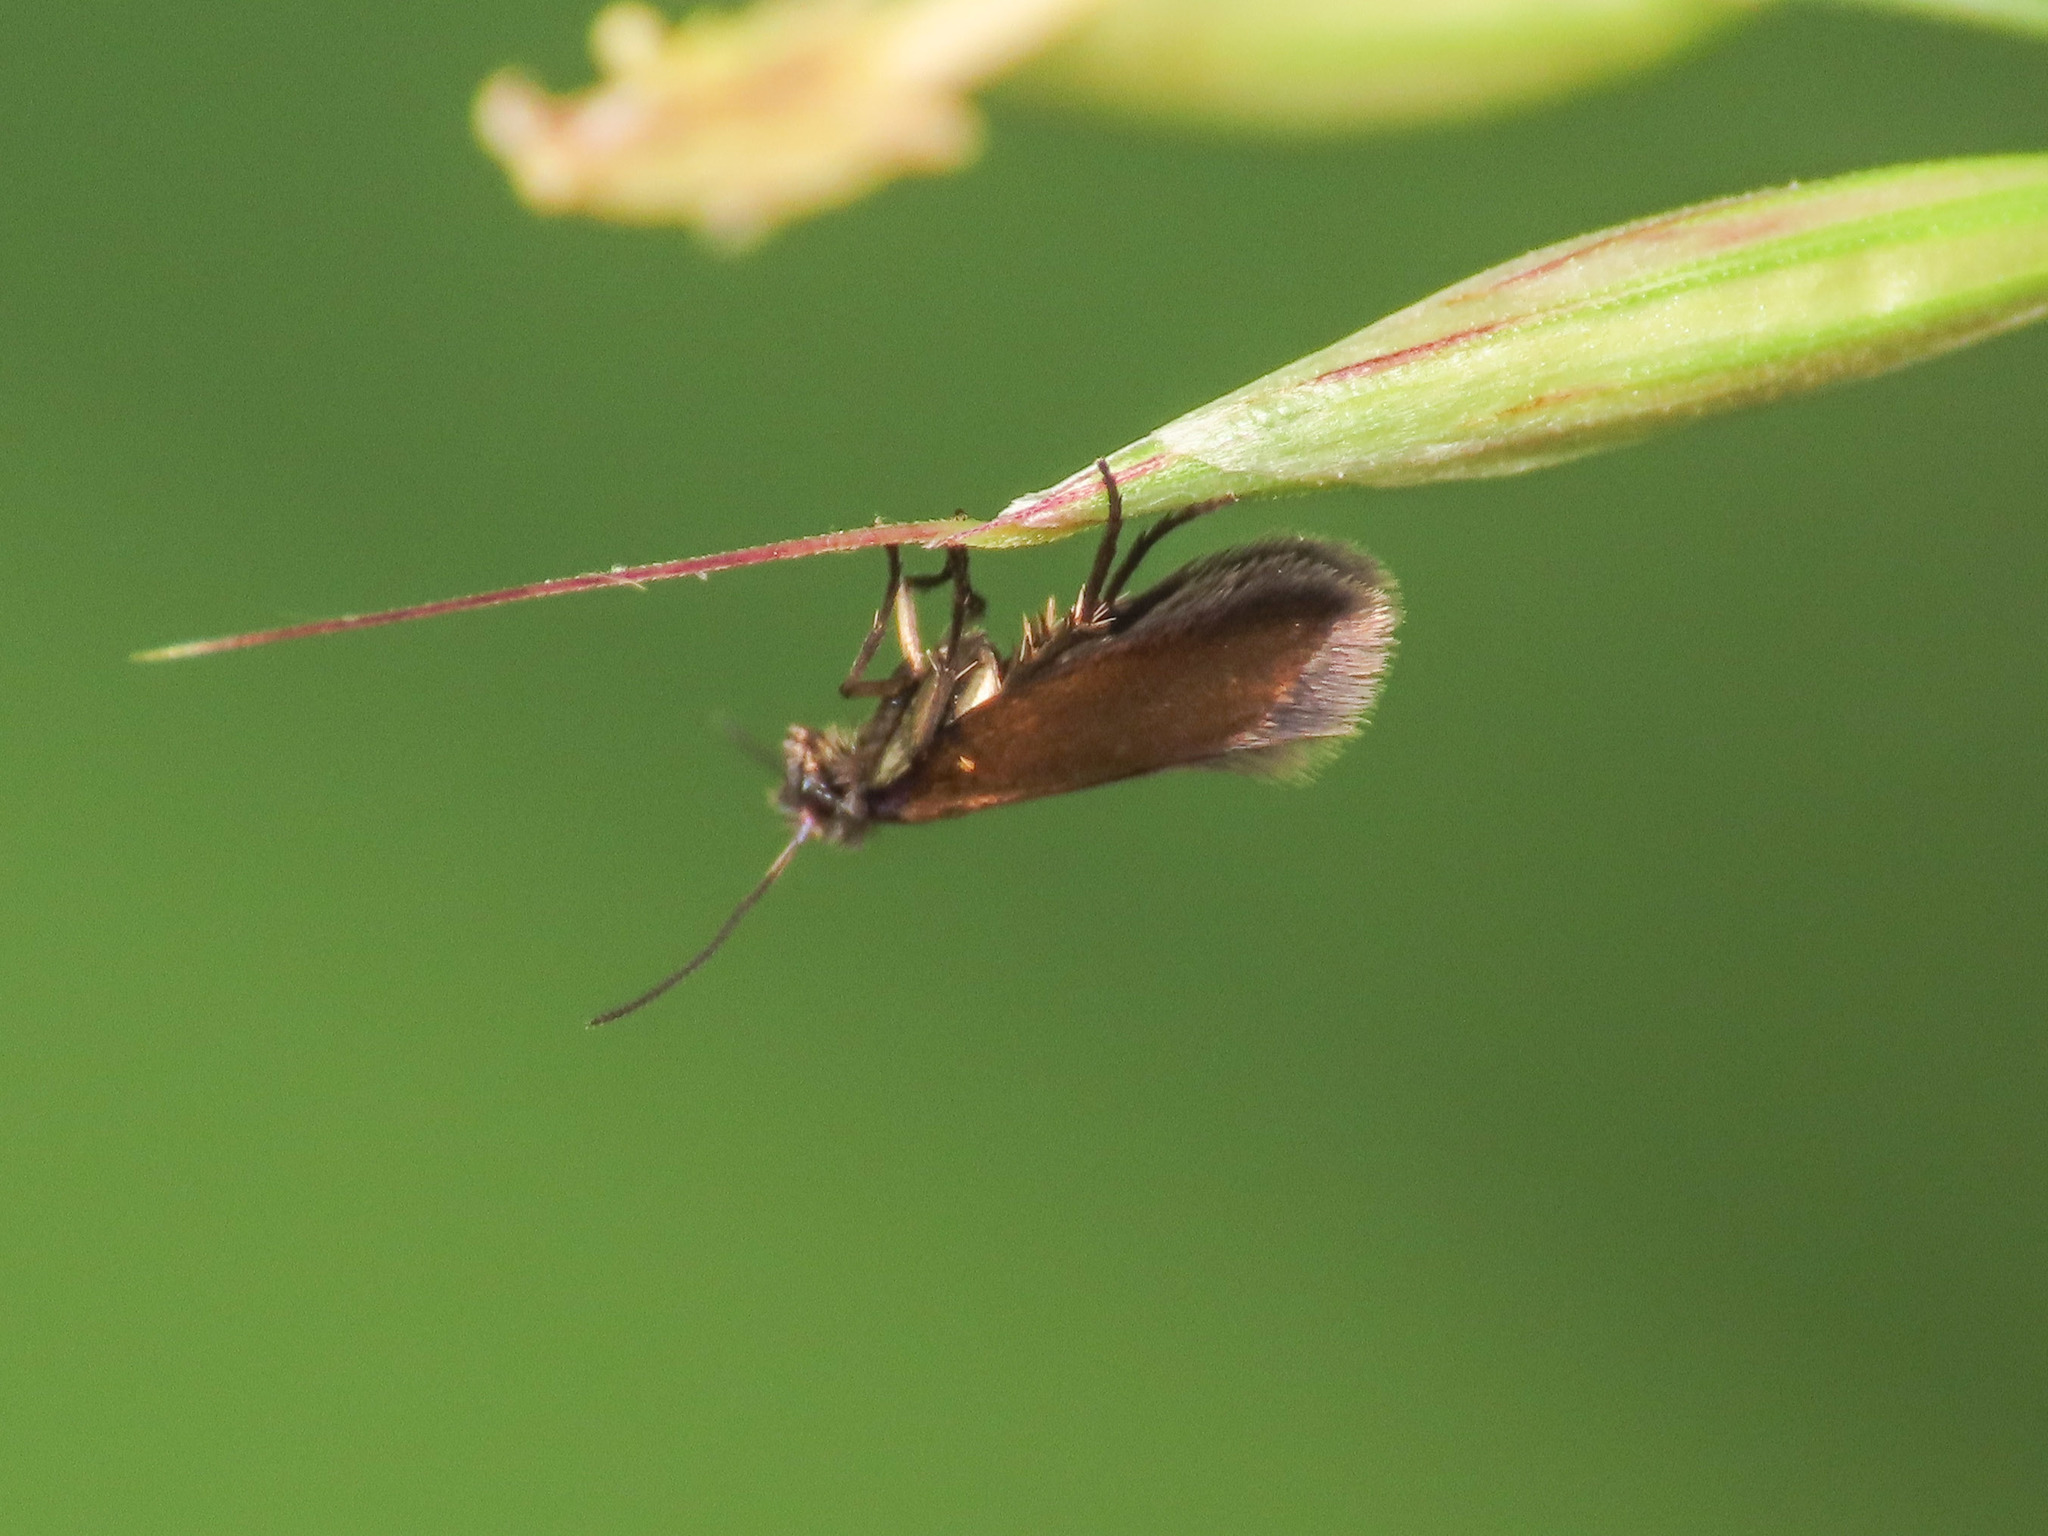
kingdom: Animalia
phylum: Arthropoda
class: Insecta
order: Lepidoptera
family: Micropterigidae
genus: Micropterix
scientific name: Micropterix aruncella
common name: White-barred gold
